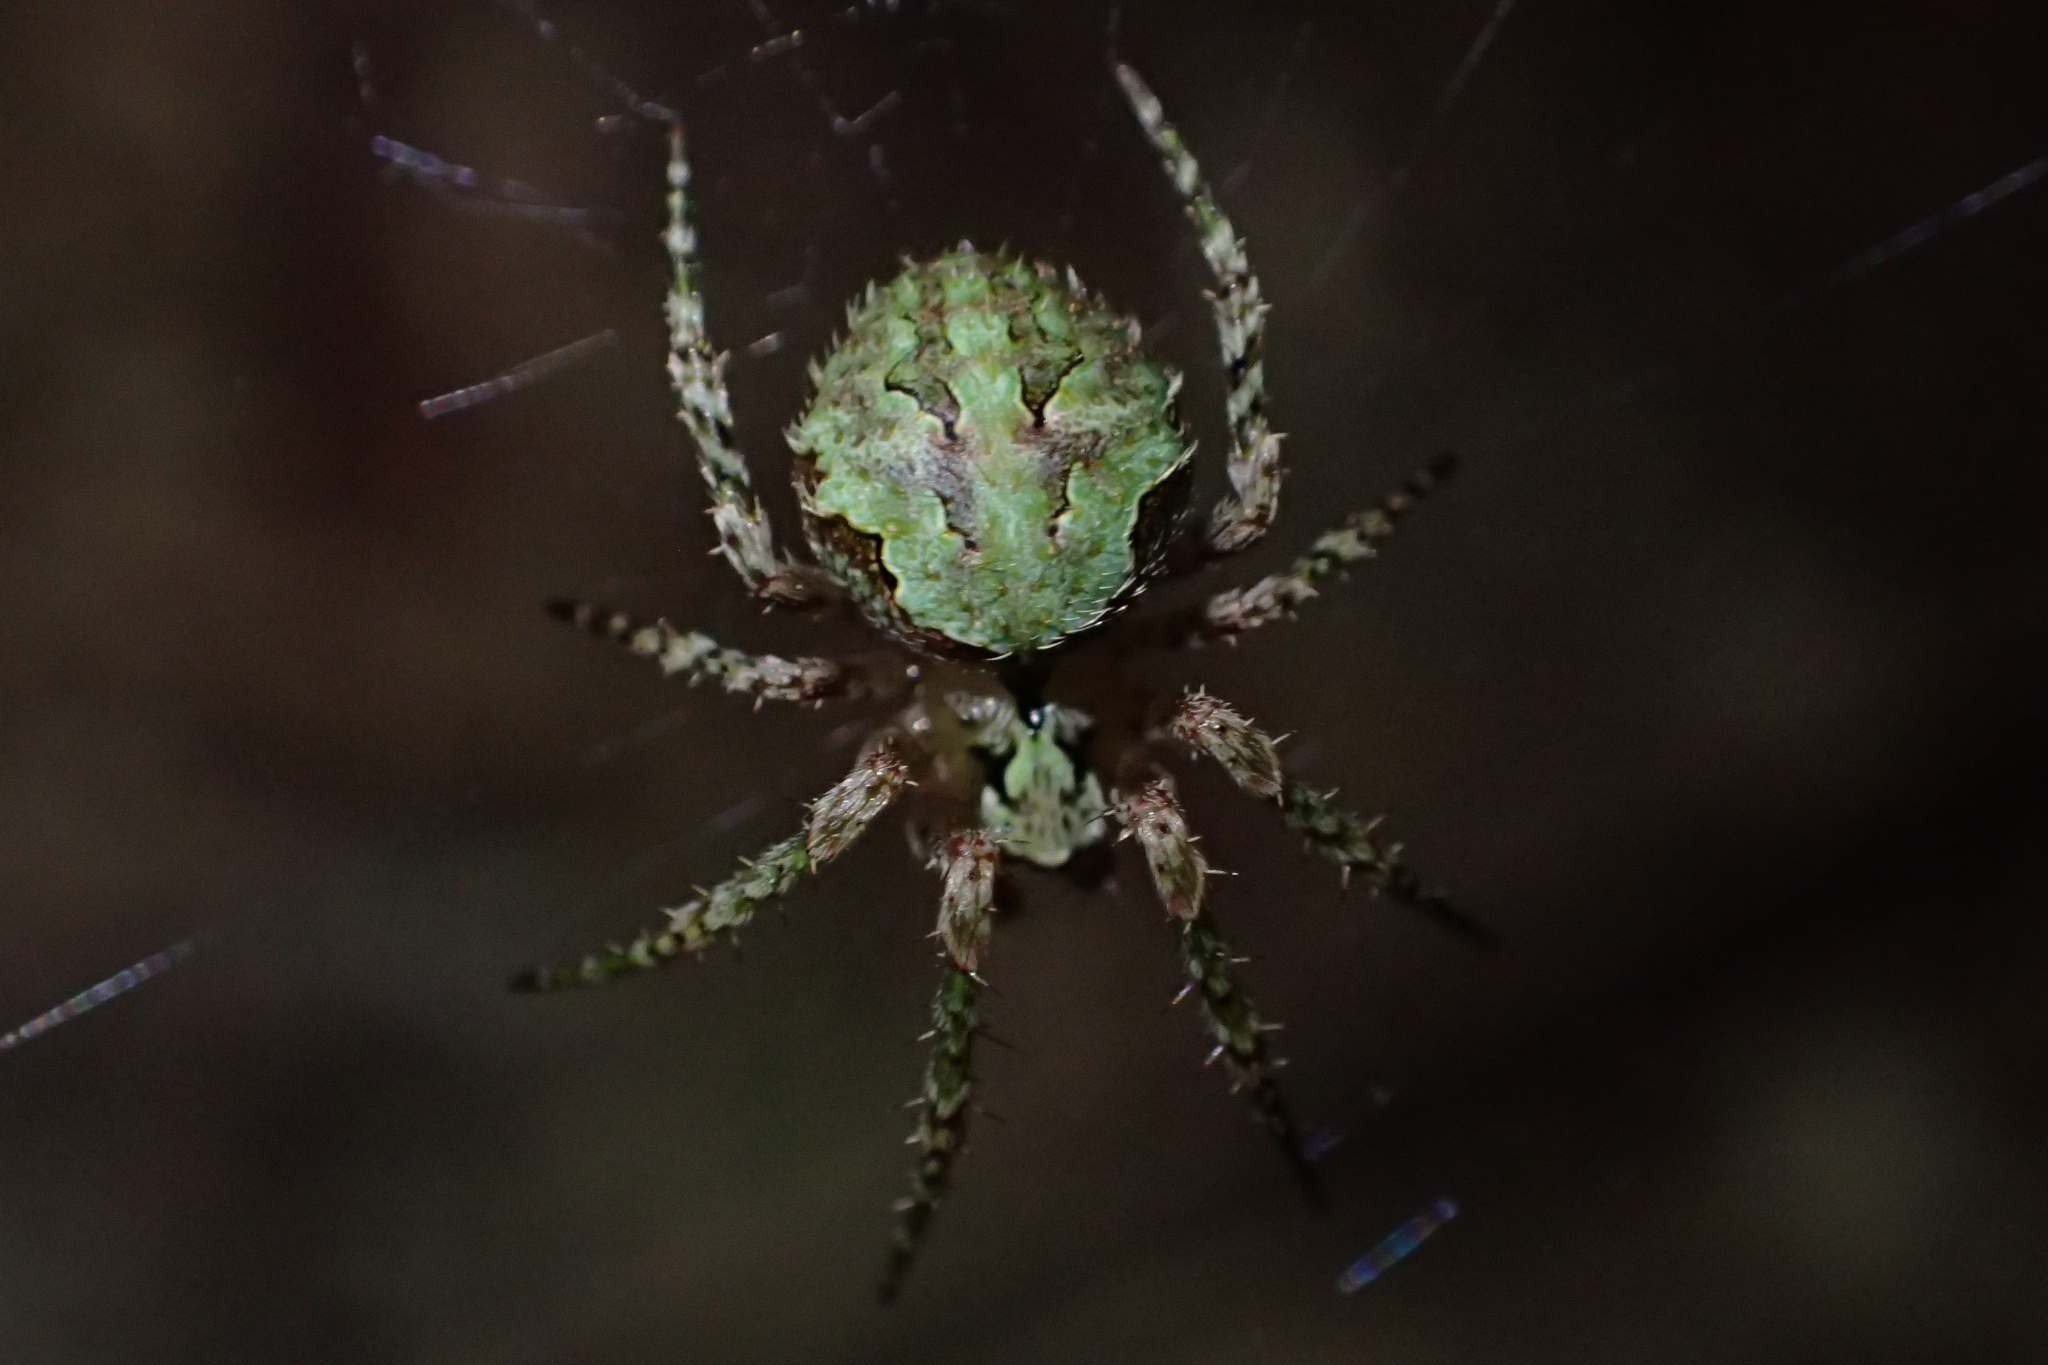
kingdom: Animalia
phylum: Arthropoda
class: Arachnida
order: Araneae
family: Araneidae
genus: Cryptaranea
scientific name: Cryptaranea atrihastula
